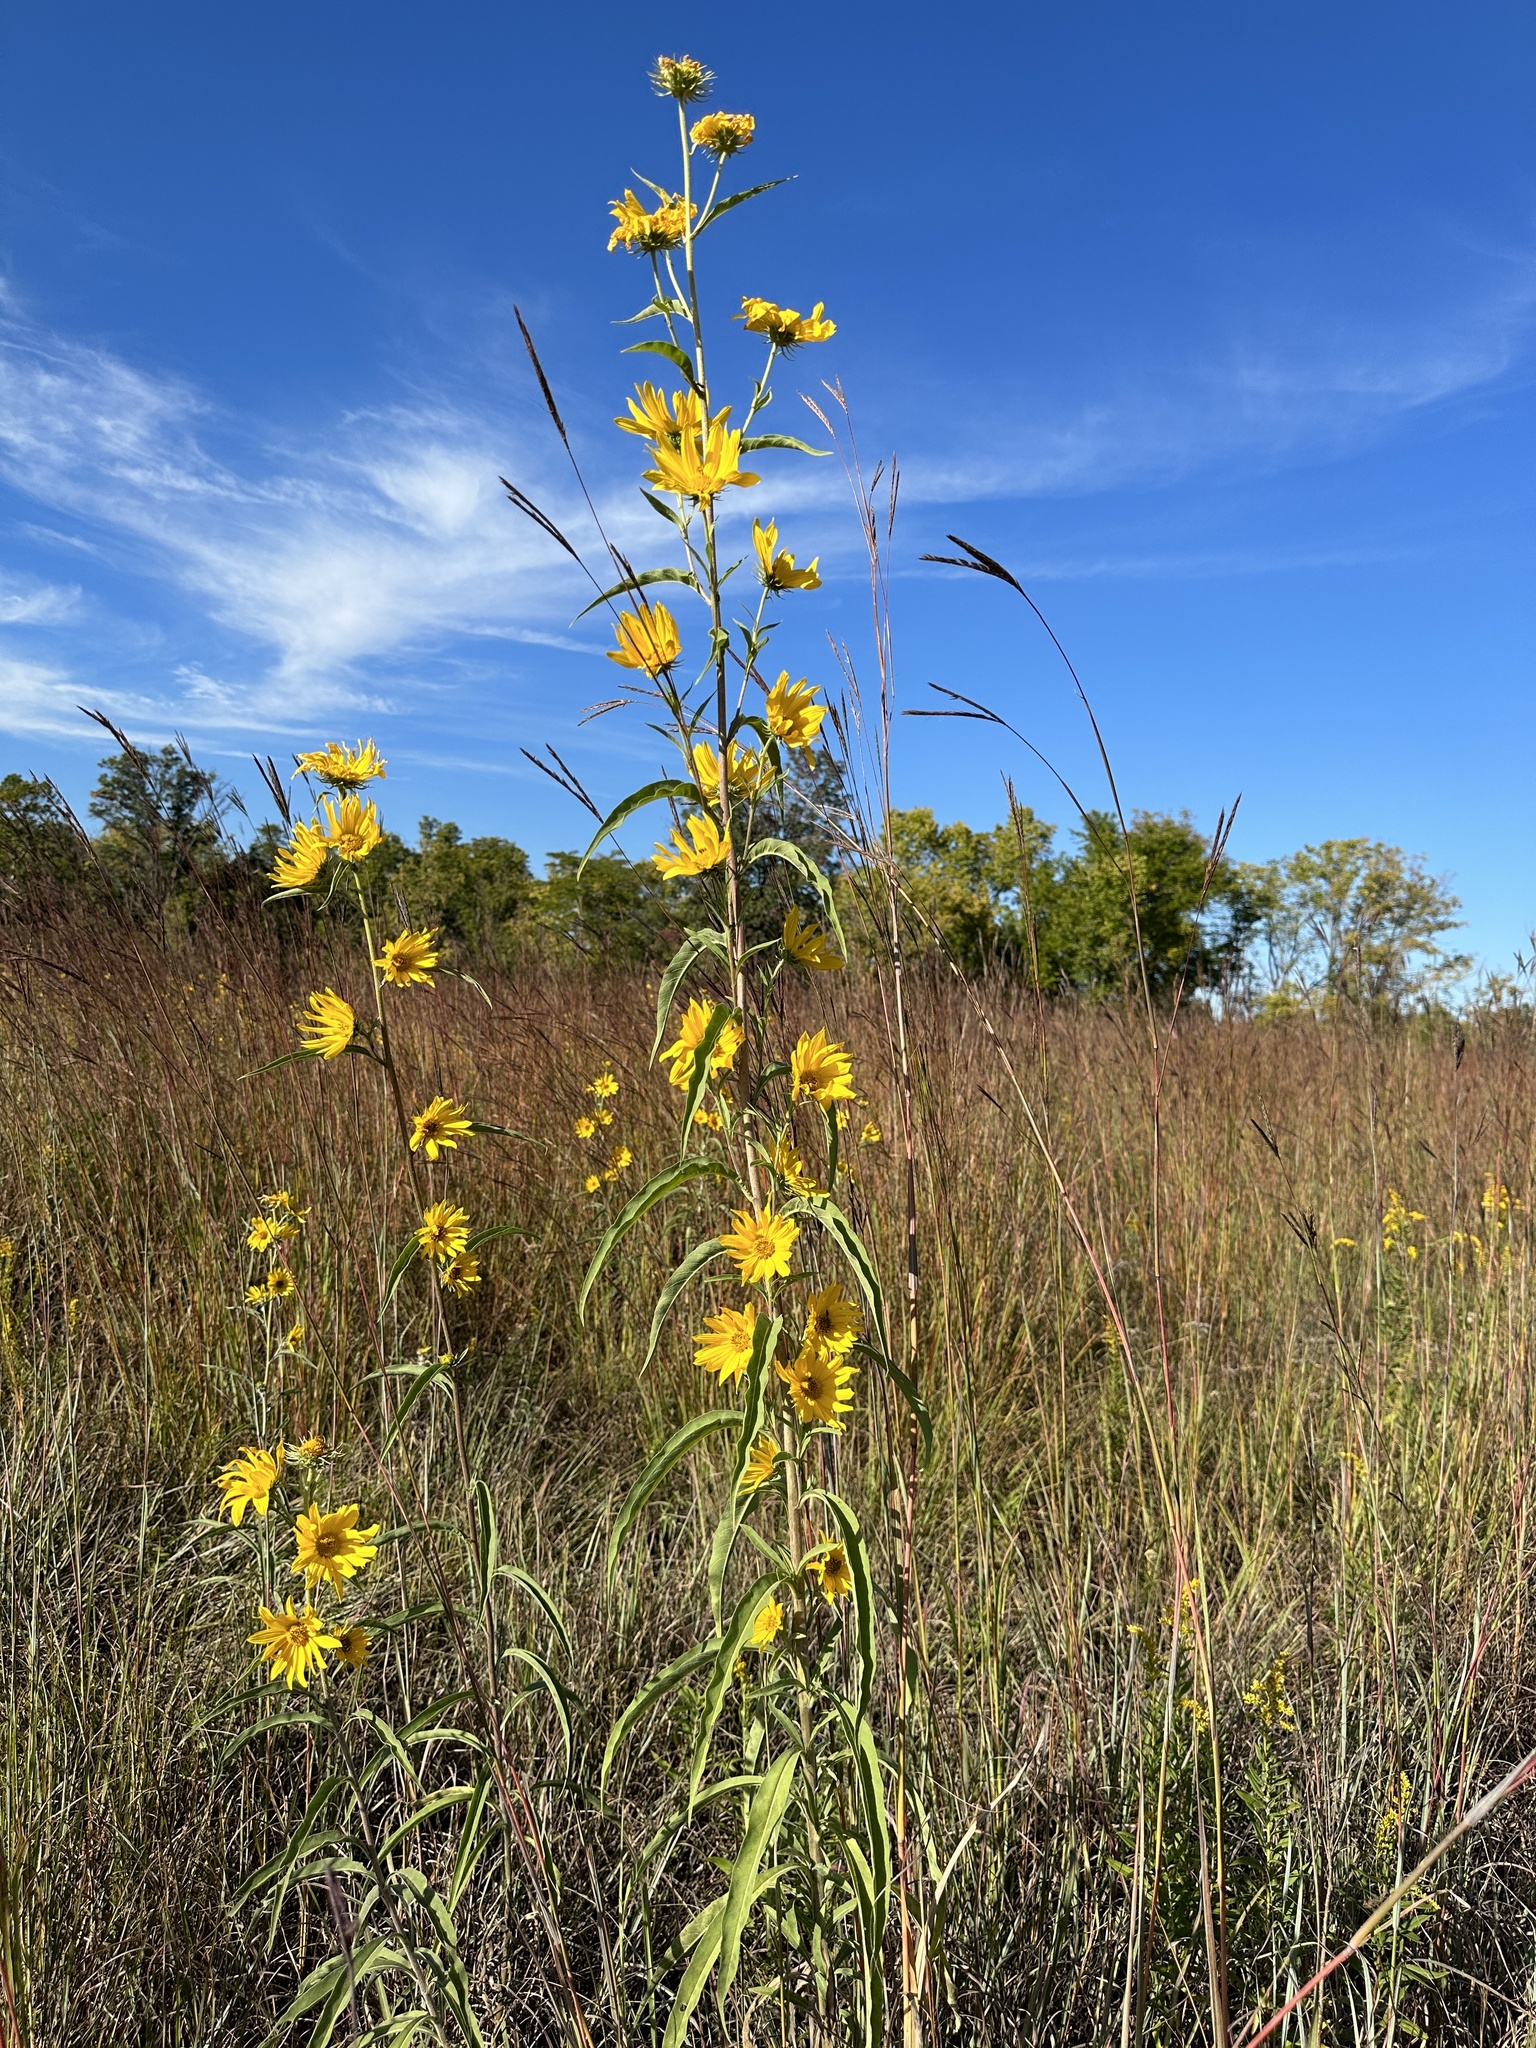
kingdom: Plantae
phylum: Tracheophyta
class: Magnoliopsida
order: Asterales
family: Asteraceae
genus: Helianthus
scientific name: Helianthus maximiliani
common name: Maximilian's sunflower
